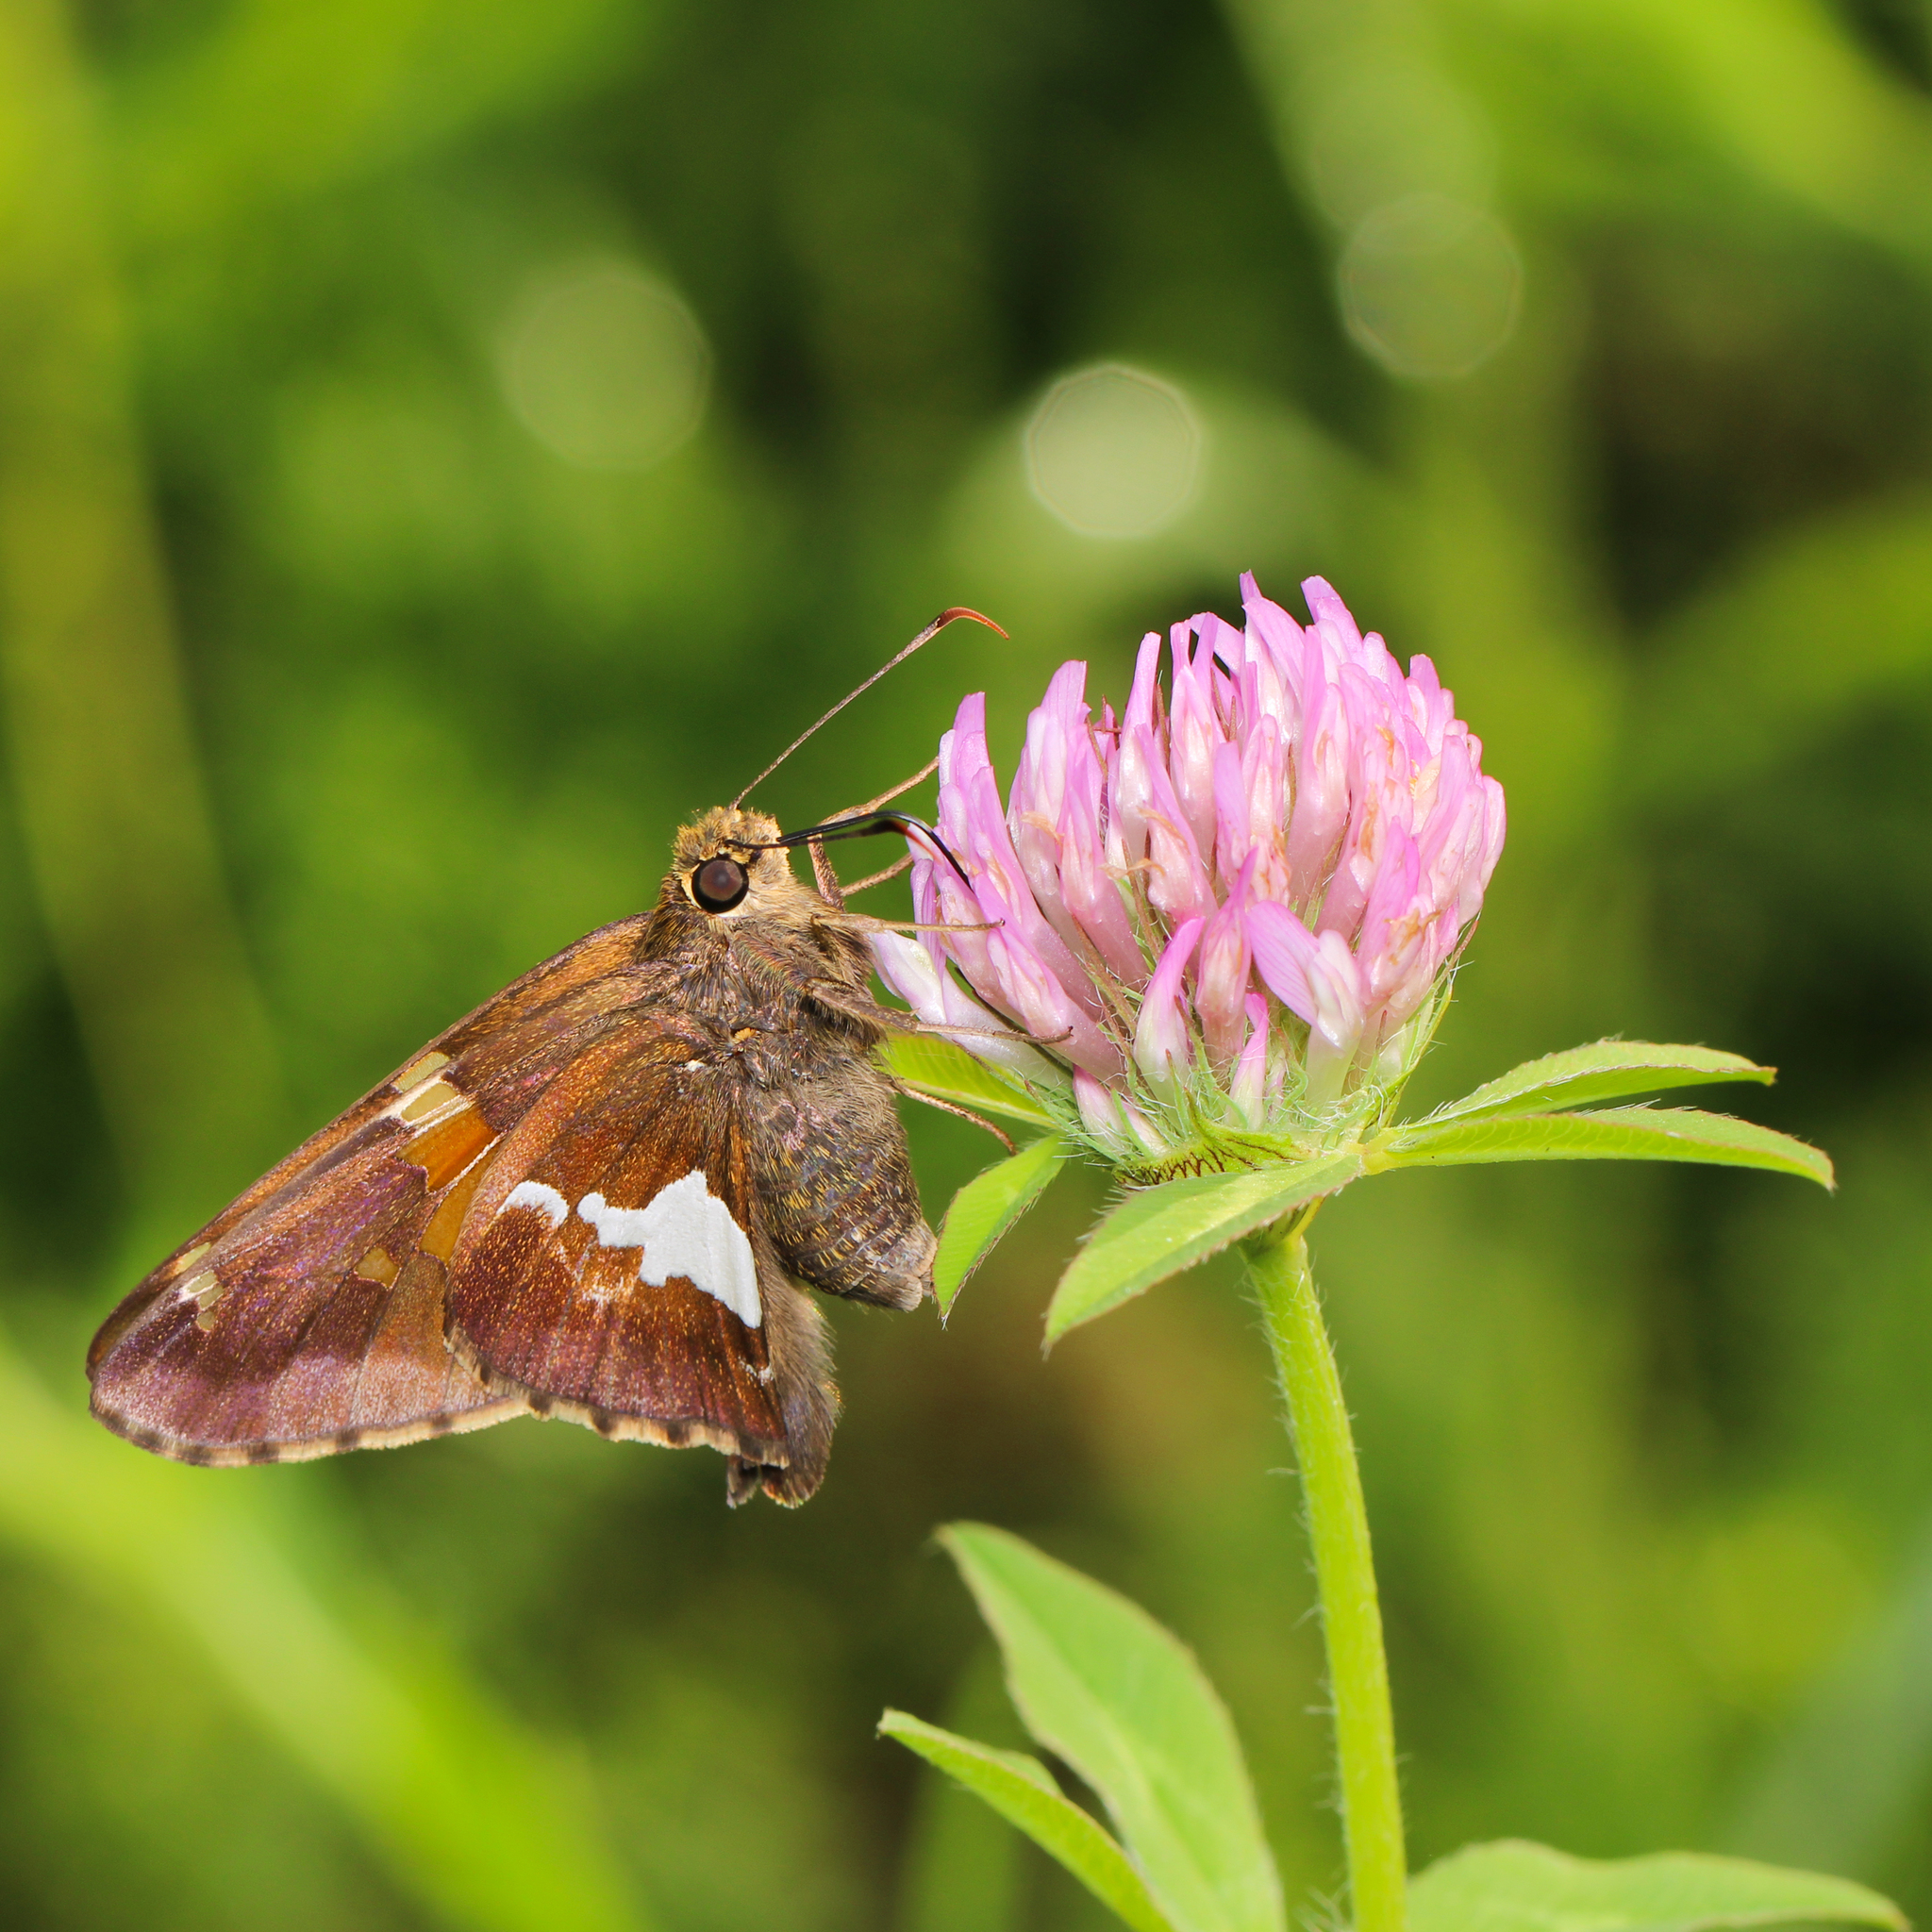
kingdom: Animalia
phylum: Arthropoda
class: Insecta
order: Lepidoptera
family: Hesperiidae
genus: Epargyreus
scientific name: Epargyreus clarus
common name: Silver-spotted skipper
